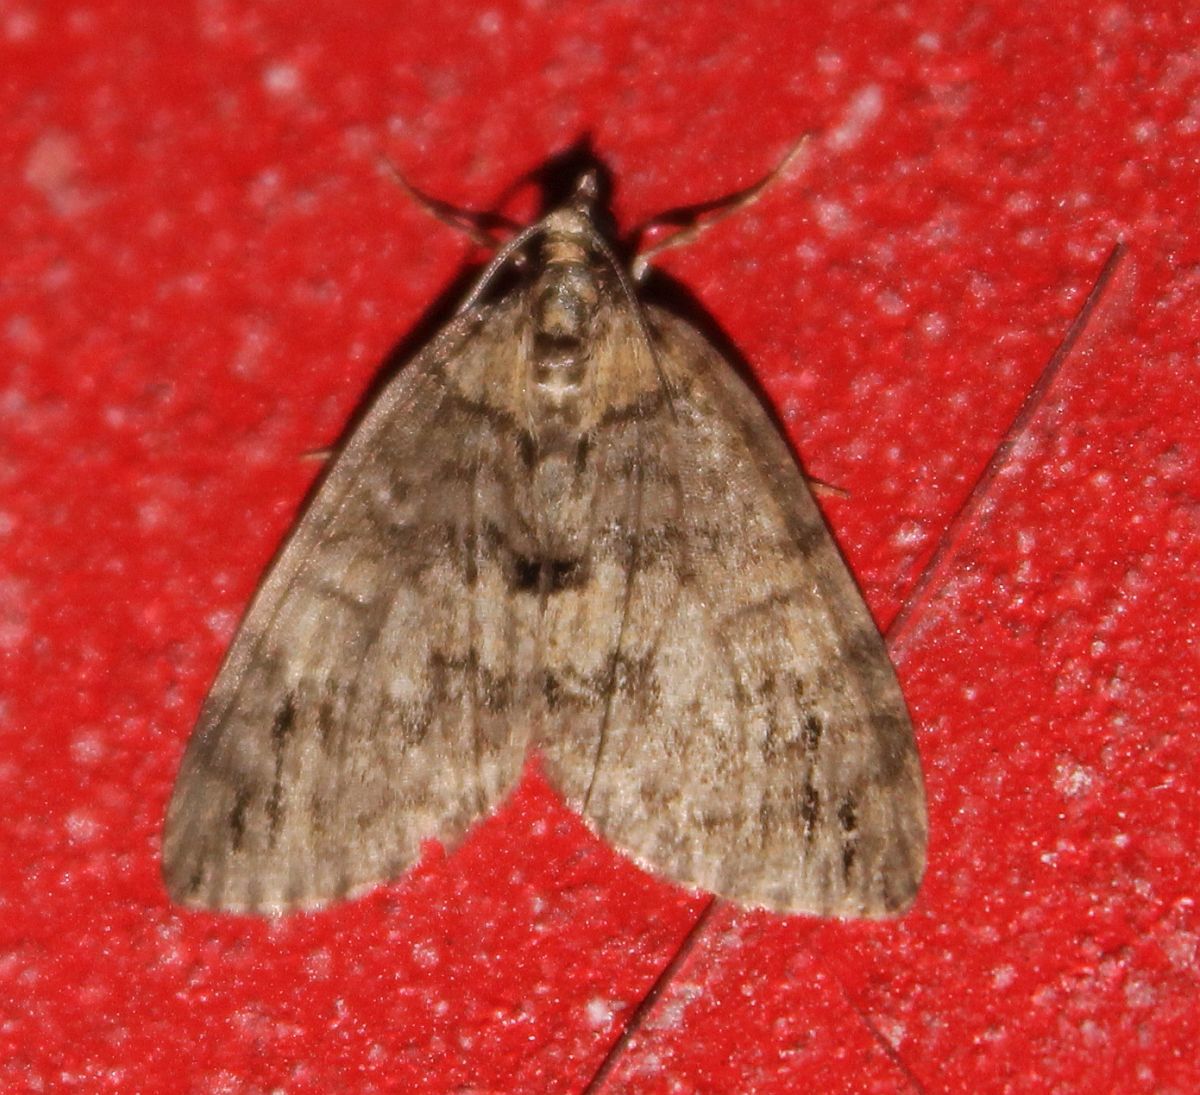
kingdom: Animalia
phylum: Arthropoda
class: Insecta
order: Lepidoptera
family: Geometridae
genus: Hydriomena
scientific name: Hydriomena impluviata
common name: May highflyer
